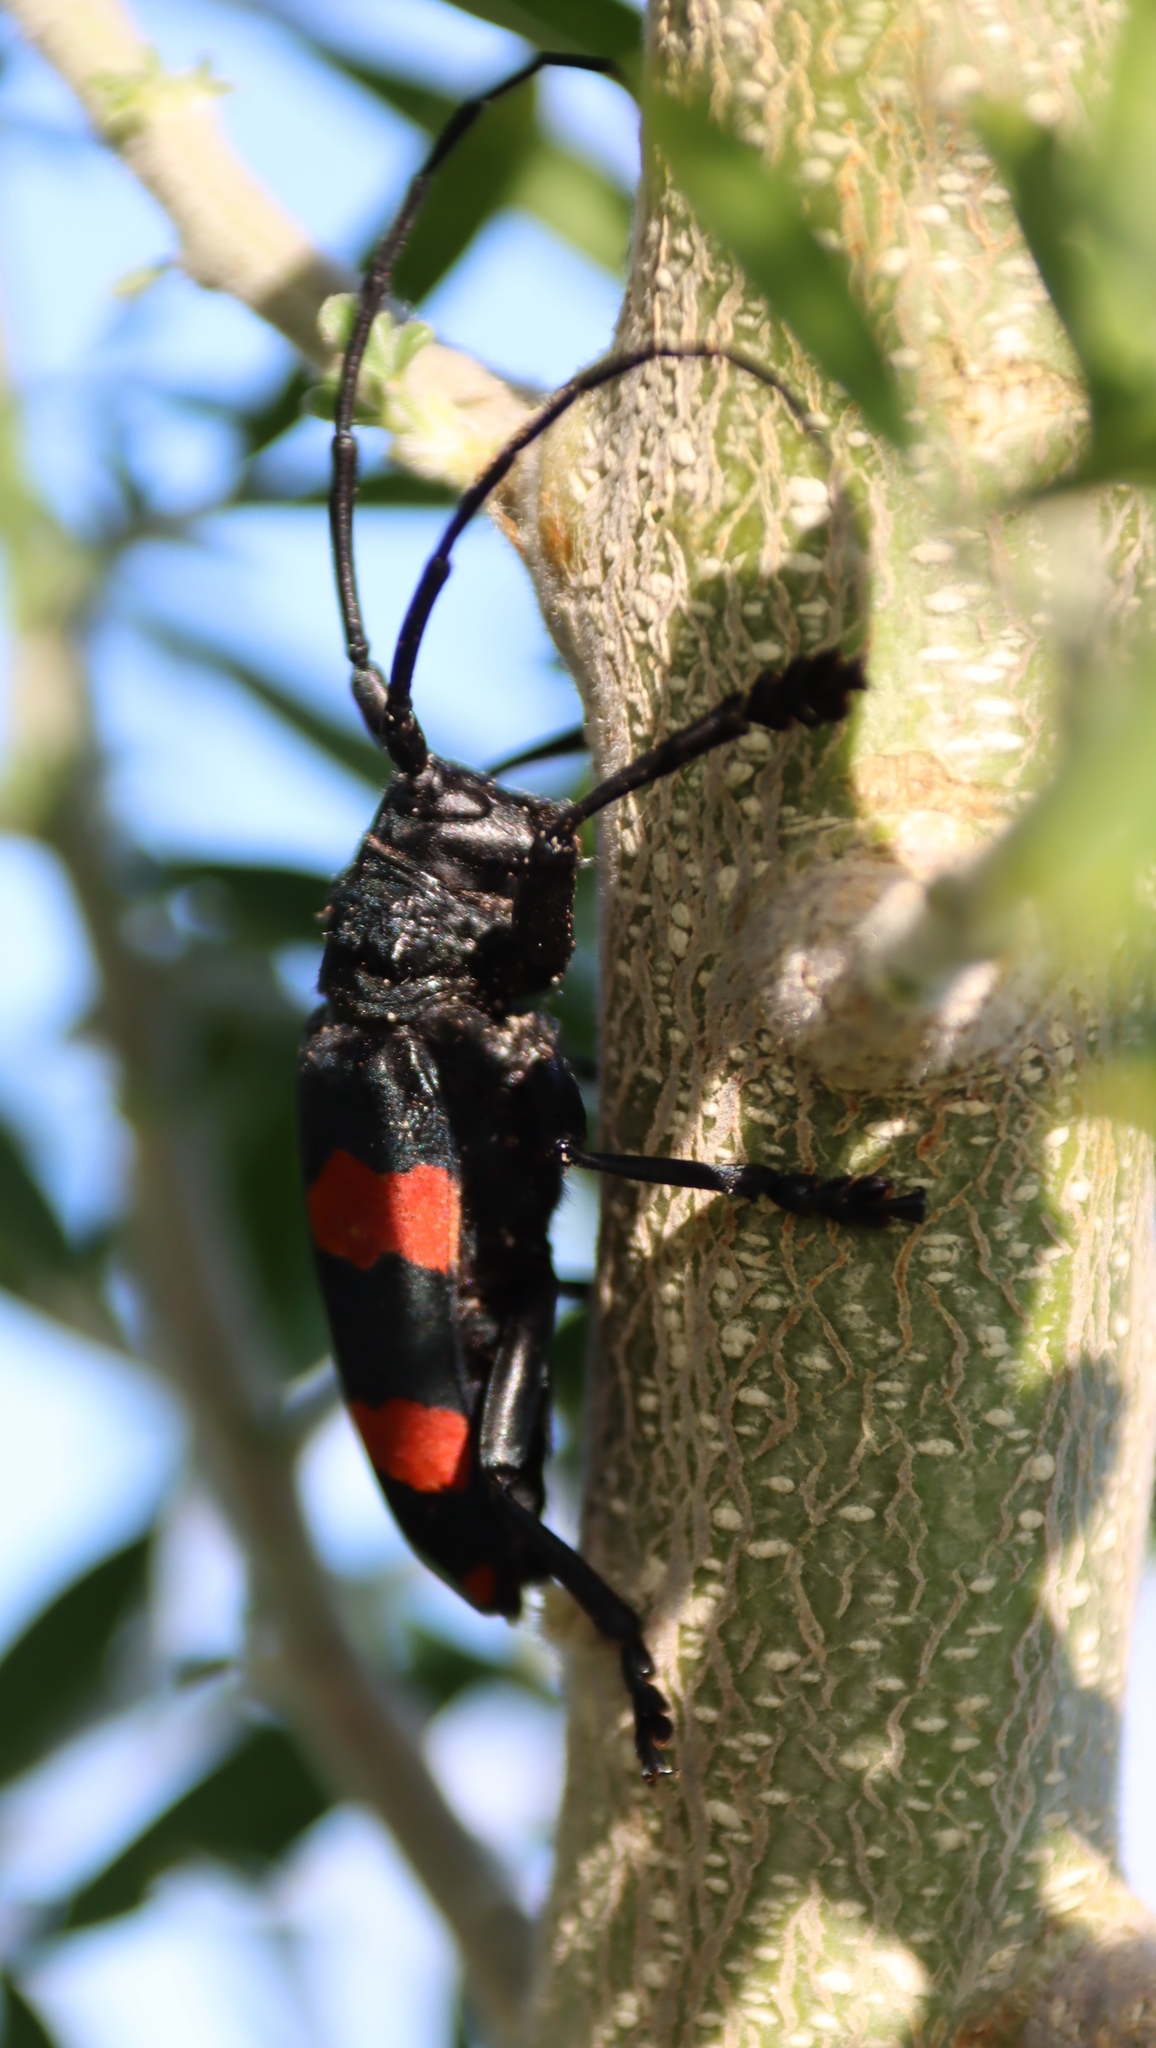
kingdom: Animalia
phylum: Arthropoda
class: Insecta
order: Coleoptera
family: Cerambycidae
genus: Ceroplesis
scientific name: Ceroplesis aethiops
